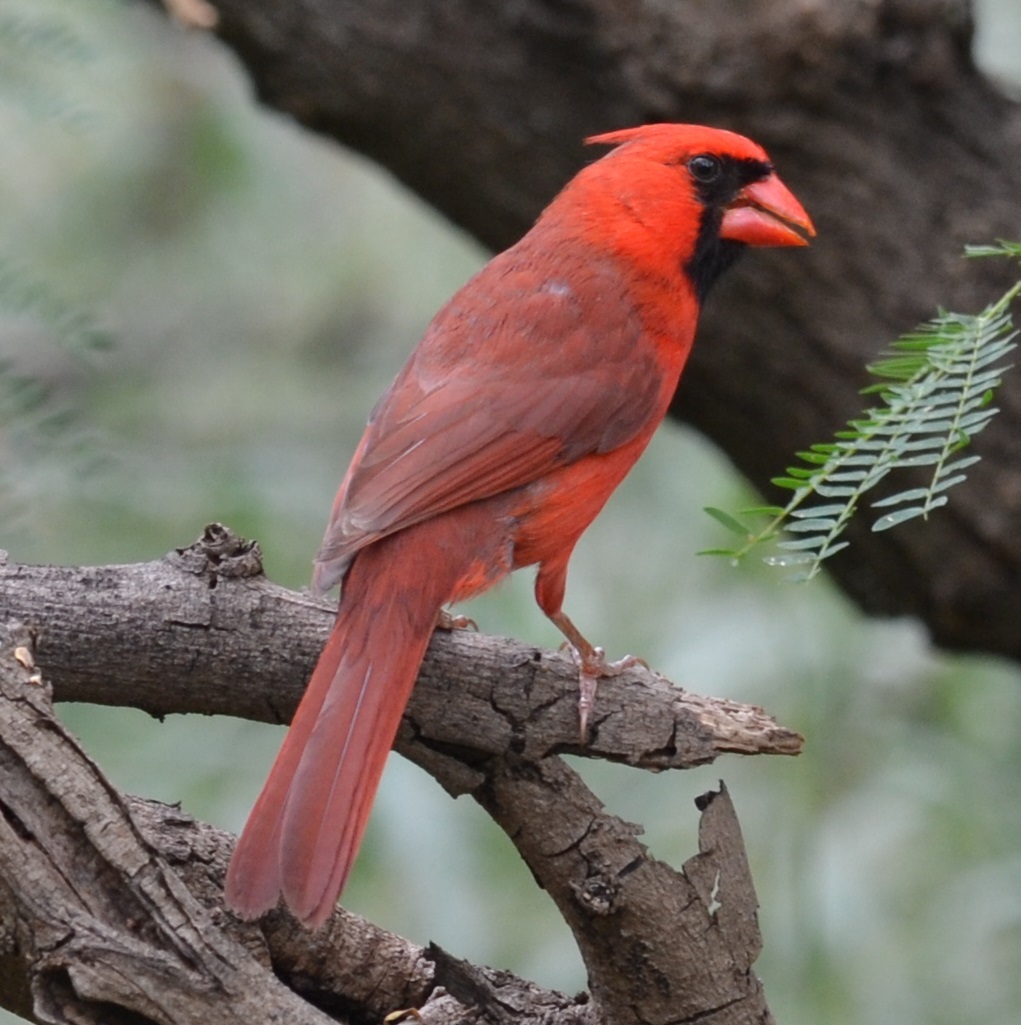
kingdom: Animalia
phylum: Chordata
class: Aves
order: Passeriformes
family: Cardinalidae
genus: Cardinalis
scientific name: Cardinalis cardinalis
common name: Northern cardinal
